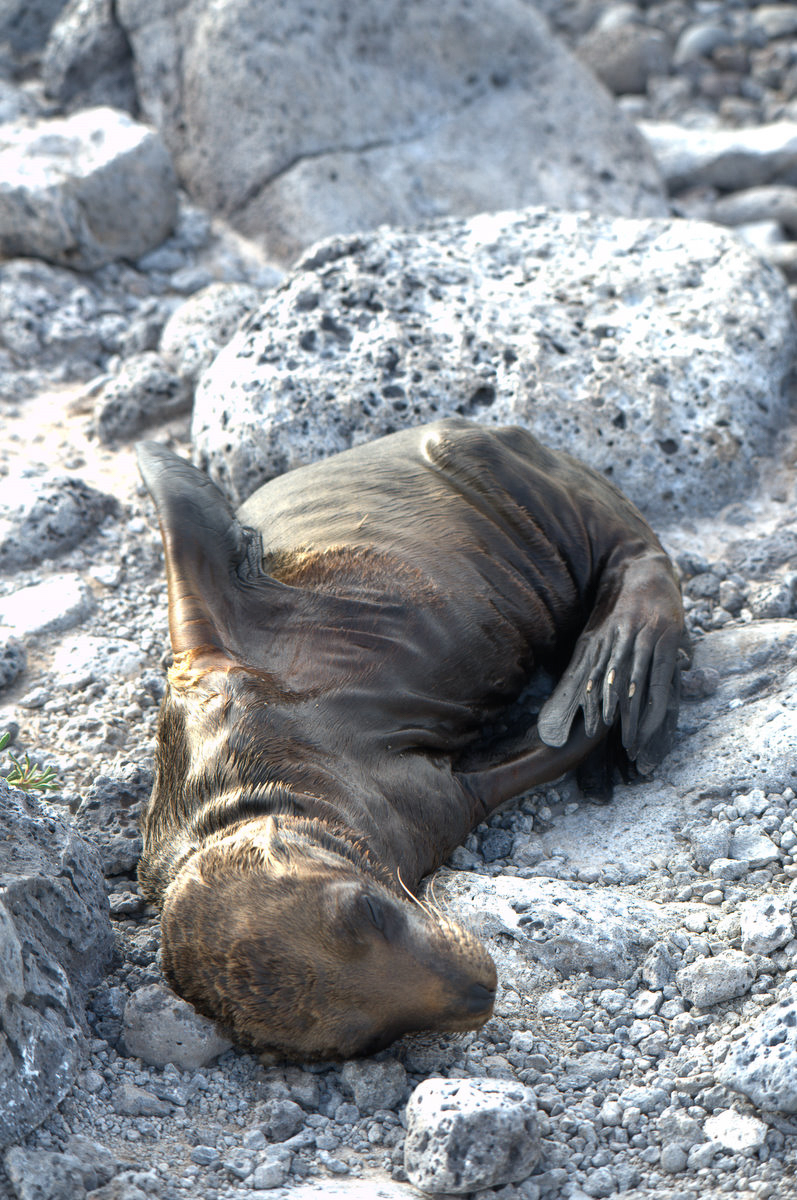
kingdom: Animalia
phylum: Chordata
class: Mammalia
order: Carnivora
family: Otariidae
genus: Zalophus
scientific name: Zalophus wollebaeki
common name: Galapagos sea lion
